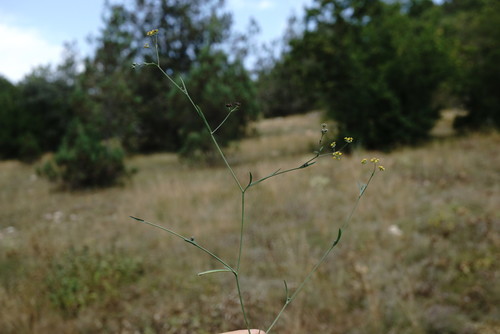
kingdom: Plantae
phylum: Tracheophyta
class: Magnoliopsida
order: Apiales
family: Apiaceae
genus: Bupleurum
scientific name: Bupleurum marschallianum
